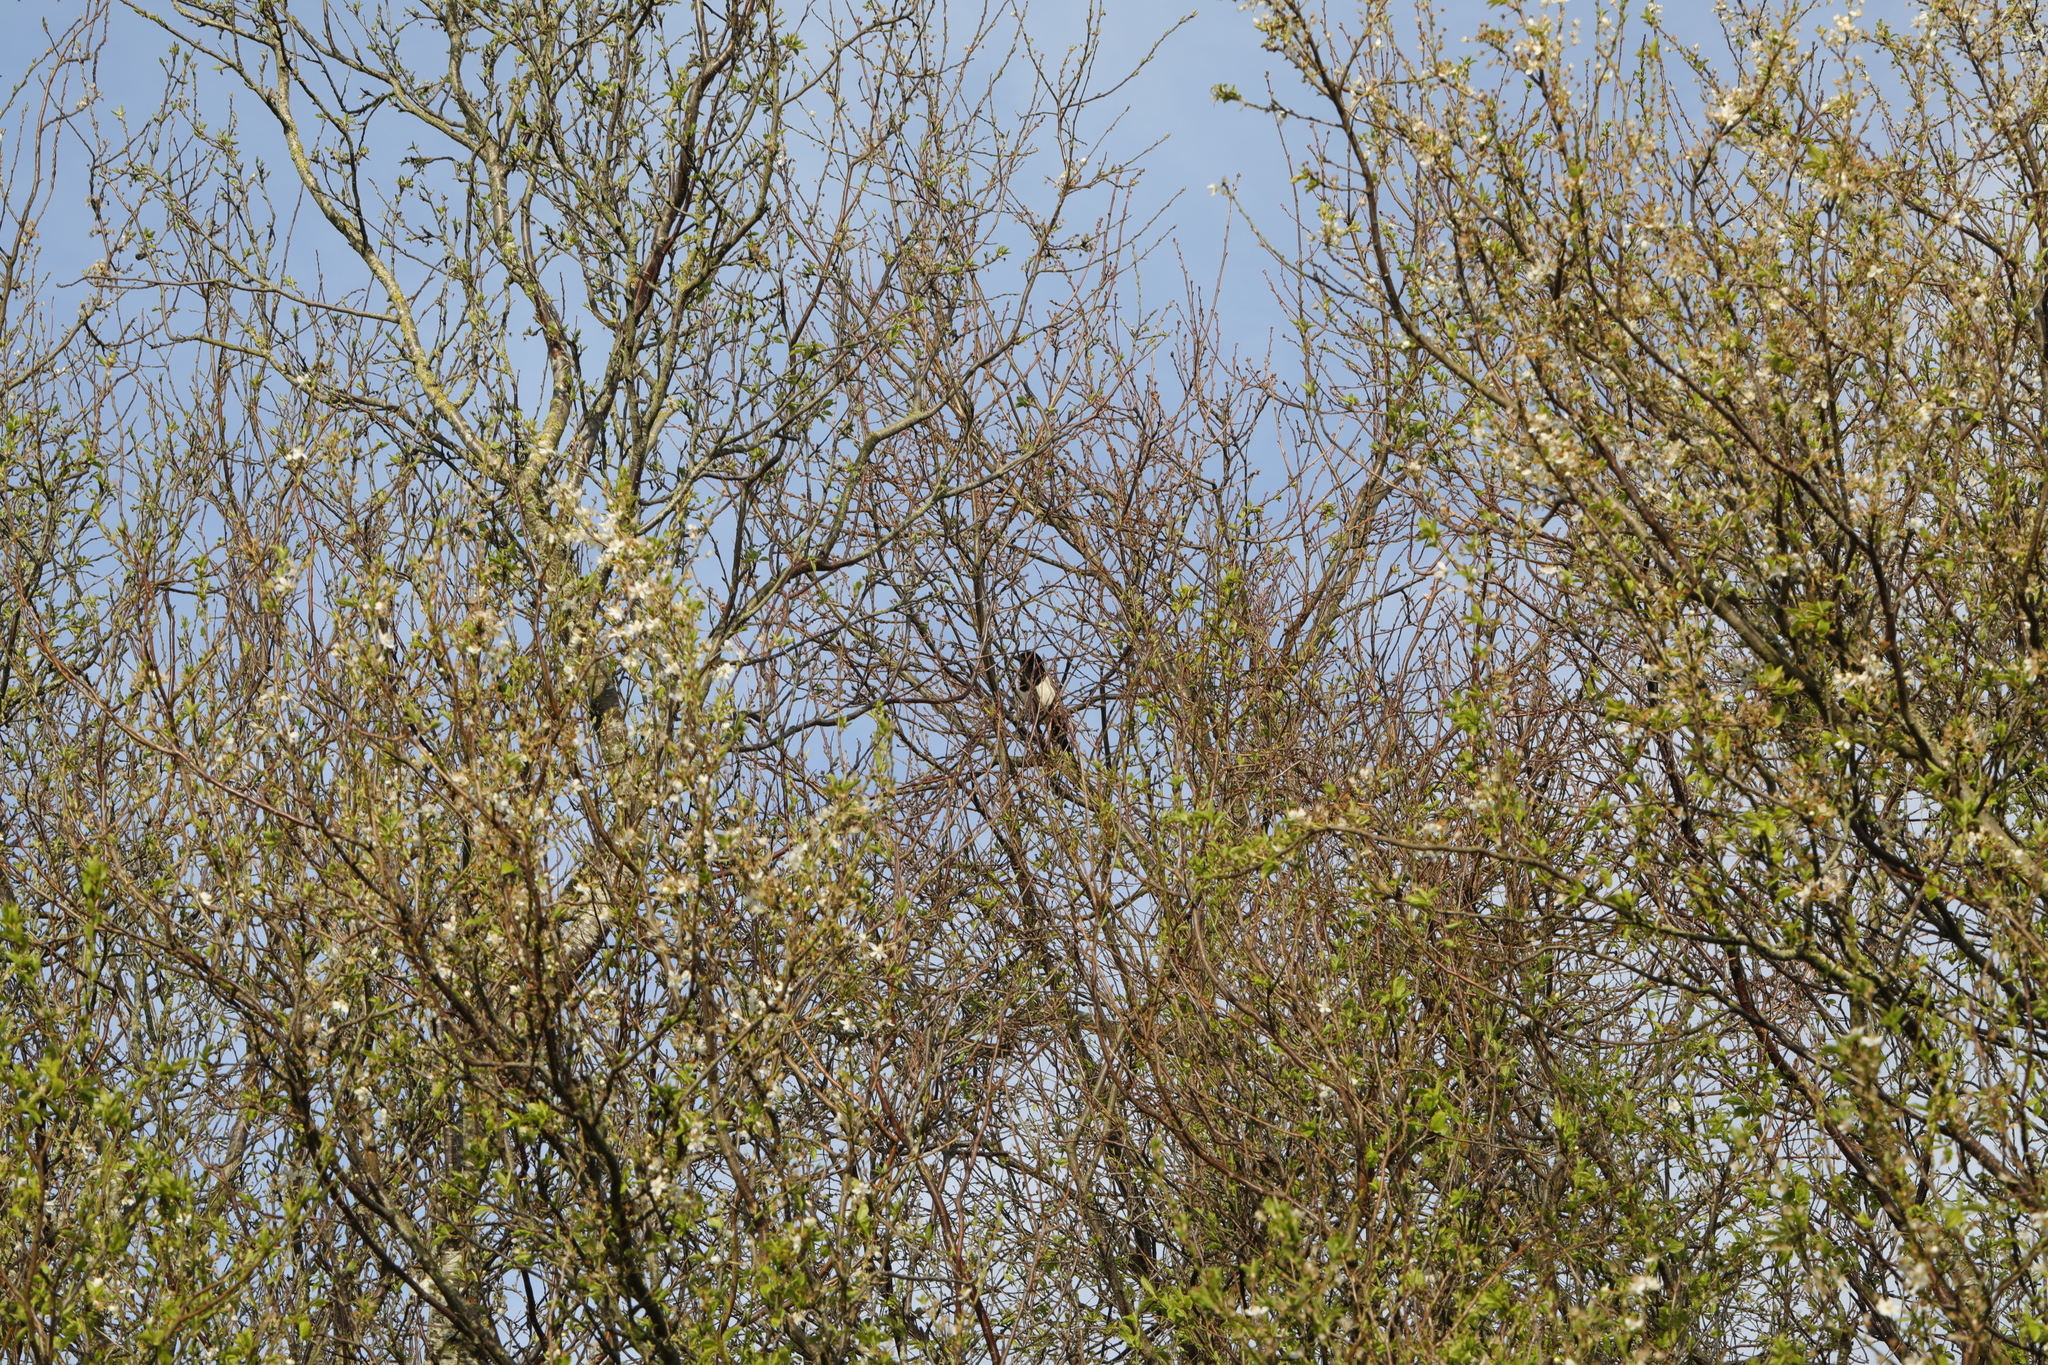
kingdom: Animalia
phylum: Chordata
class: Aves
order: Passeriformes
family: Corvidae
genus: Pica
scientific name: Pica pica
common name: Eurasian magpie
